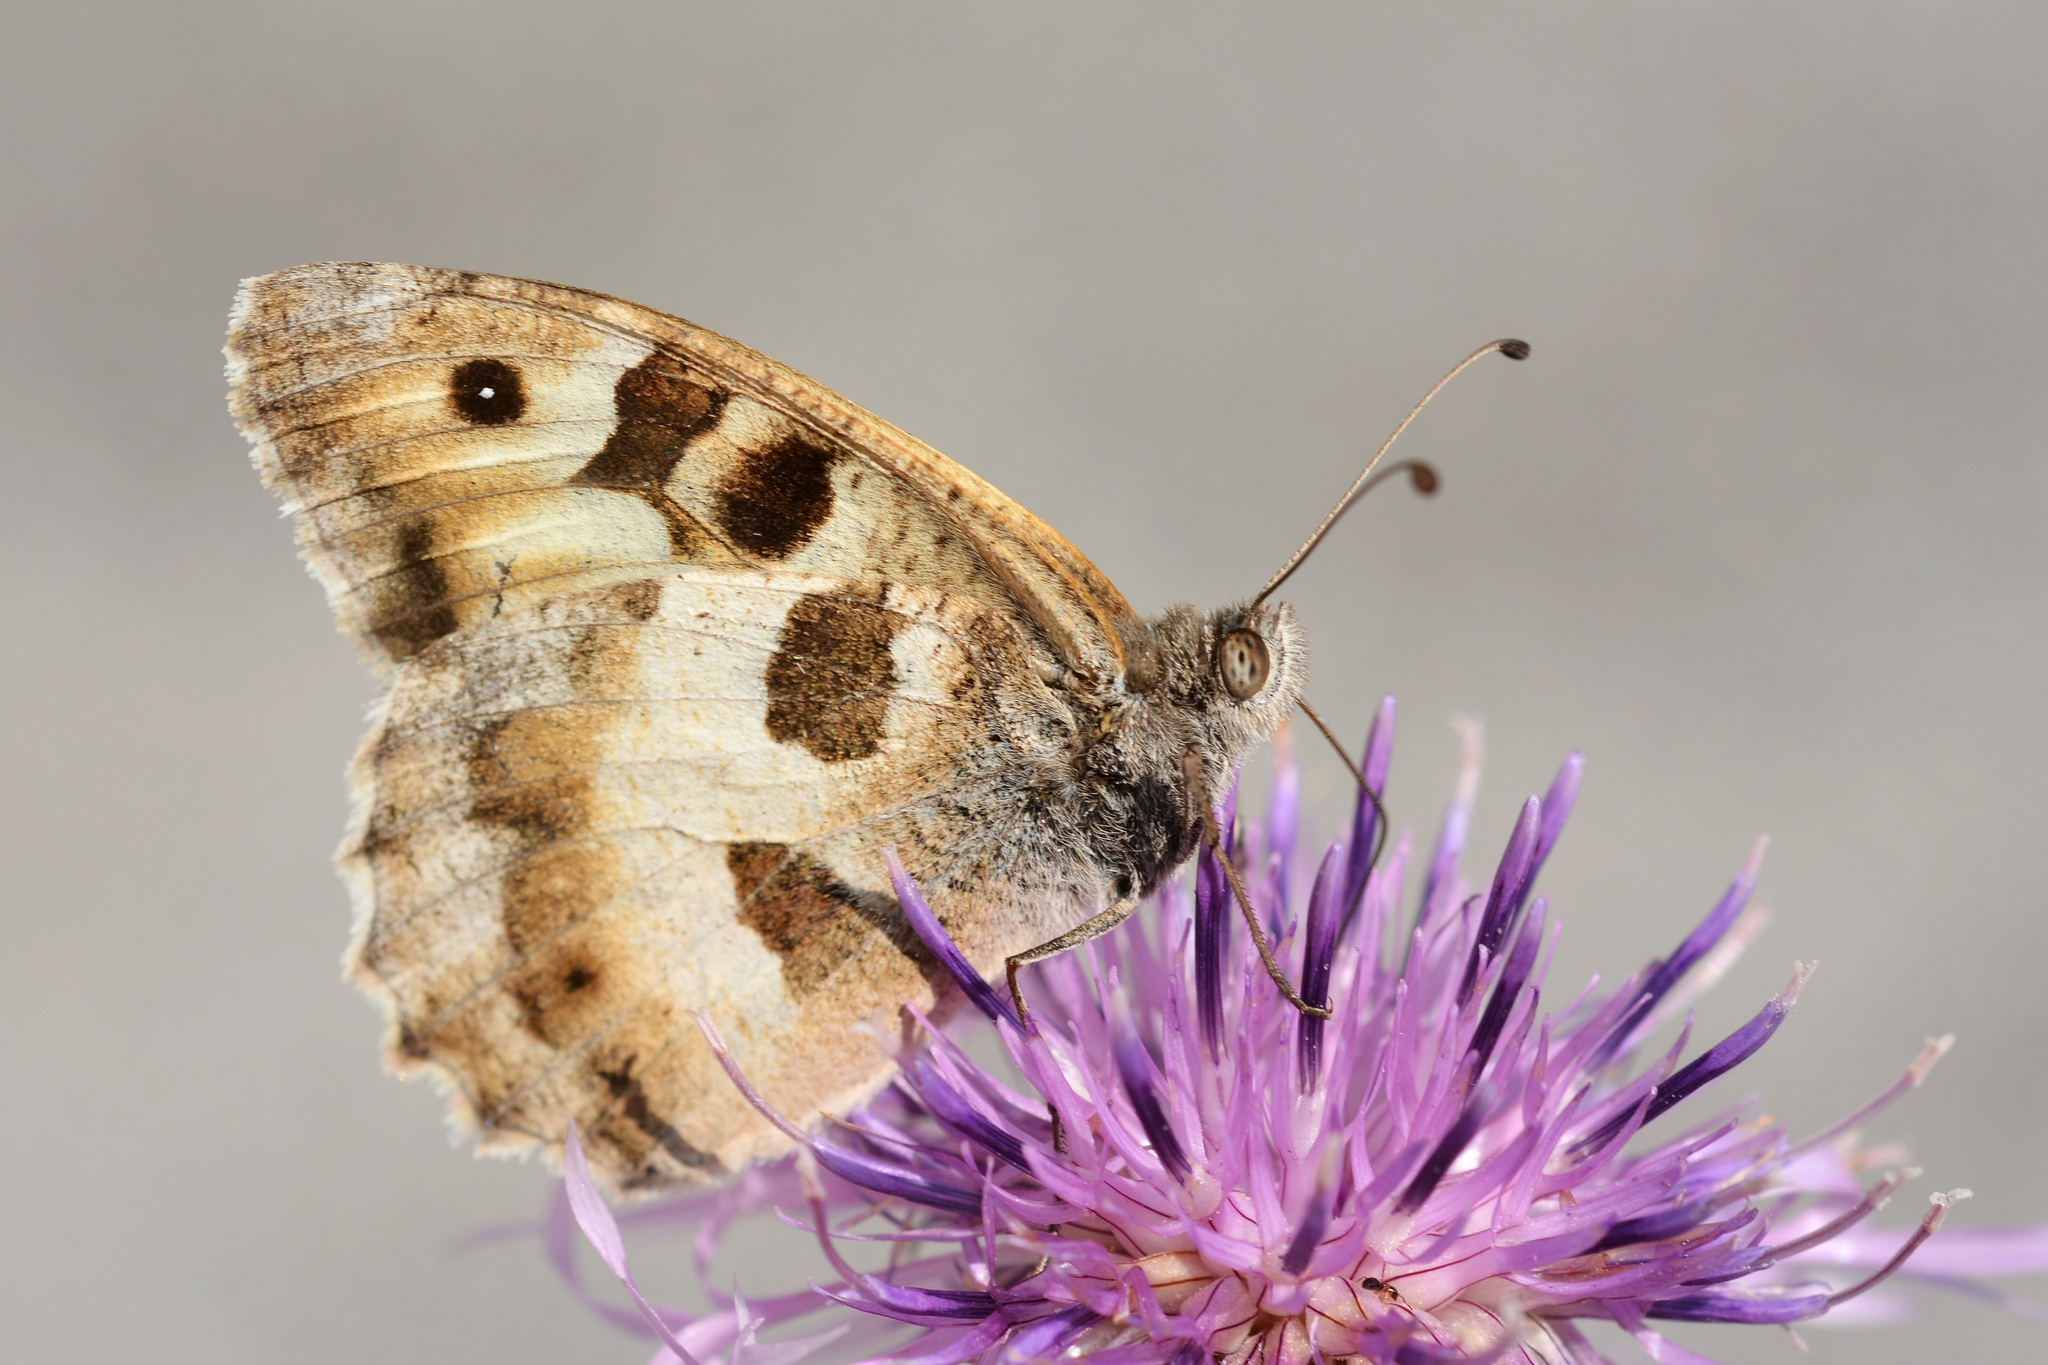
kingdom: Animalia
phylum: Arthropoda
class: Insecta
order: Lepidoptera
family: Nymphalidae
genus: Satyrus
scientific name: Satyrus briseis
